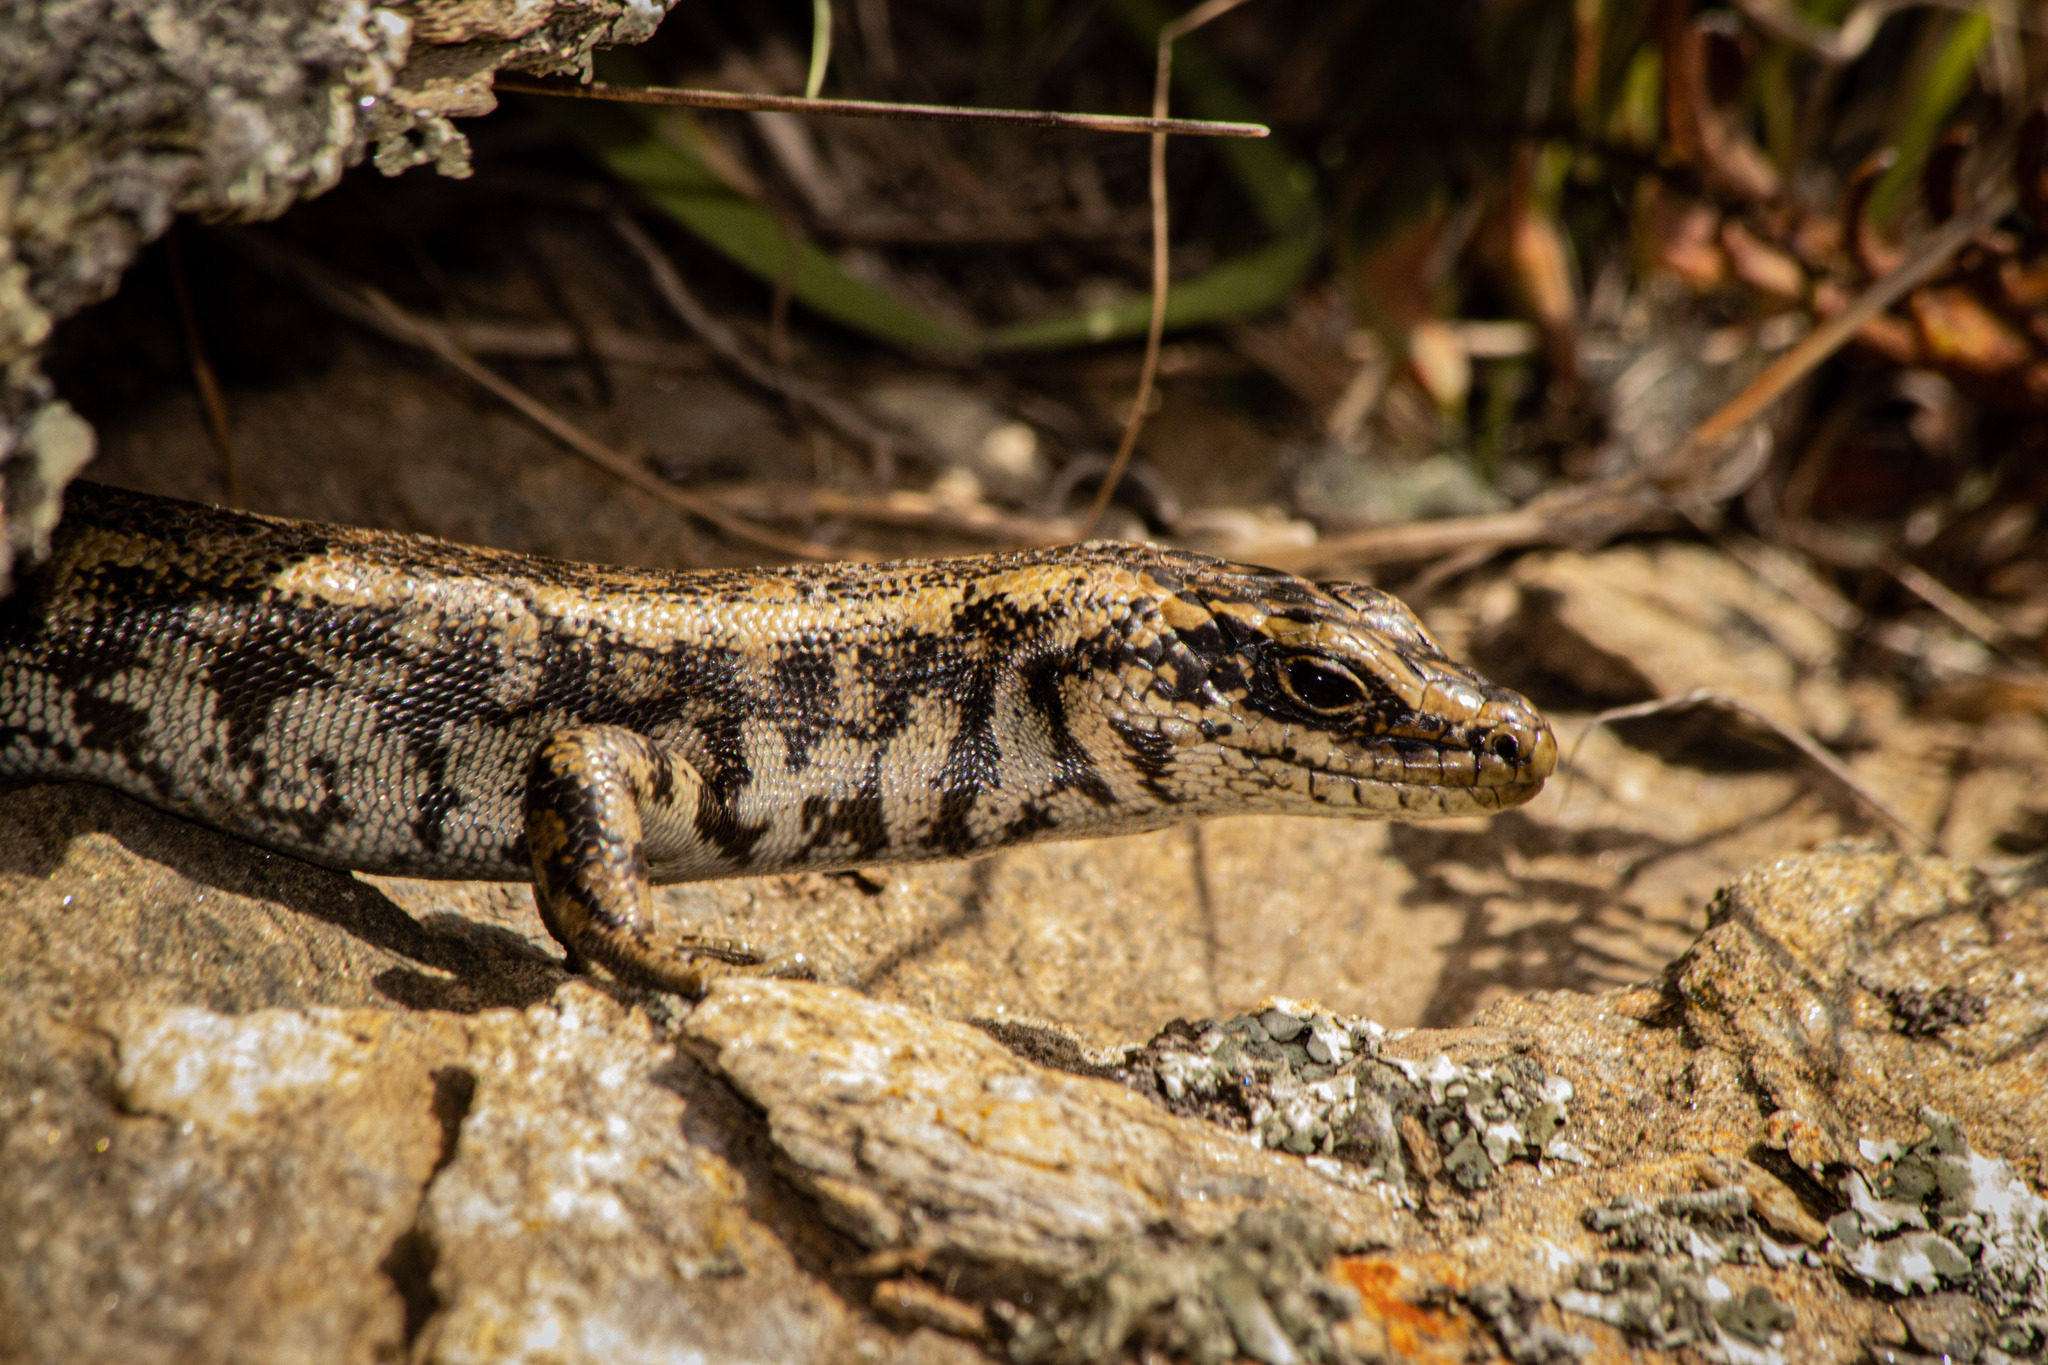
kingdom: Animalia
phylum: Chordata
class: Squamata
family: Scincidae
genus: Oligosoma
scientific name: Oligosoma otagense
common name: Otago skink
